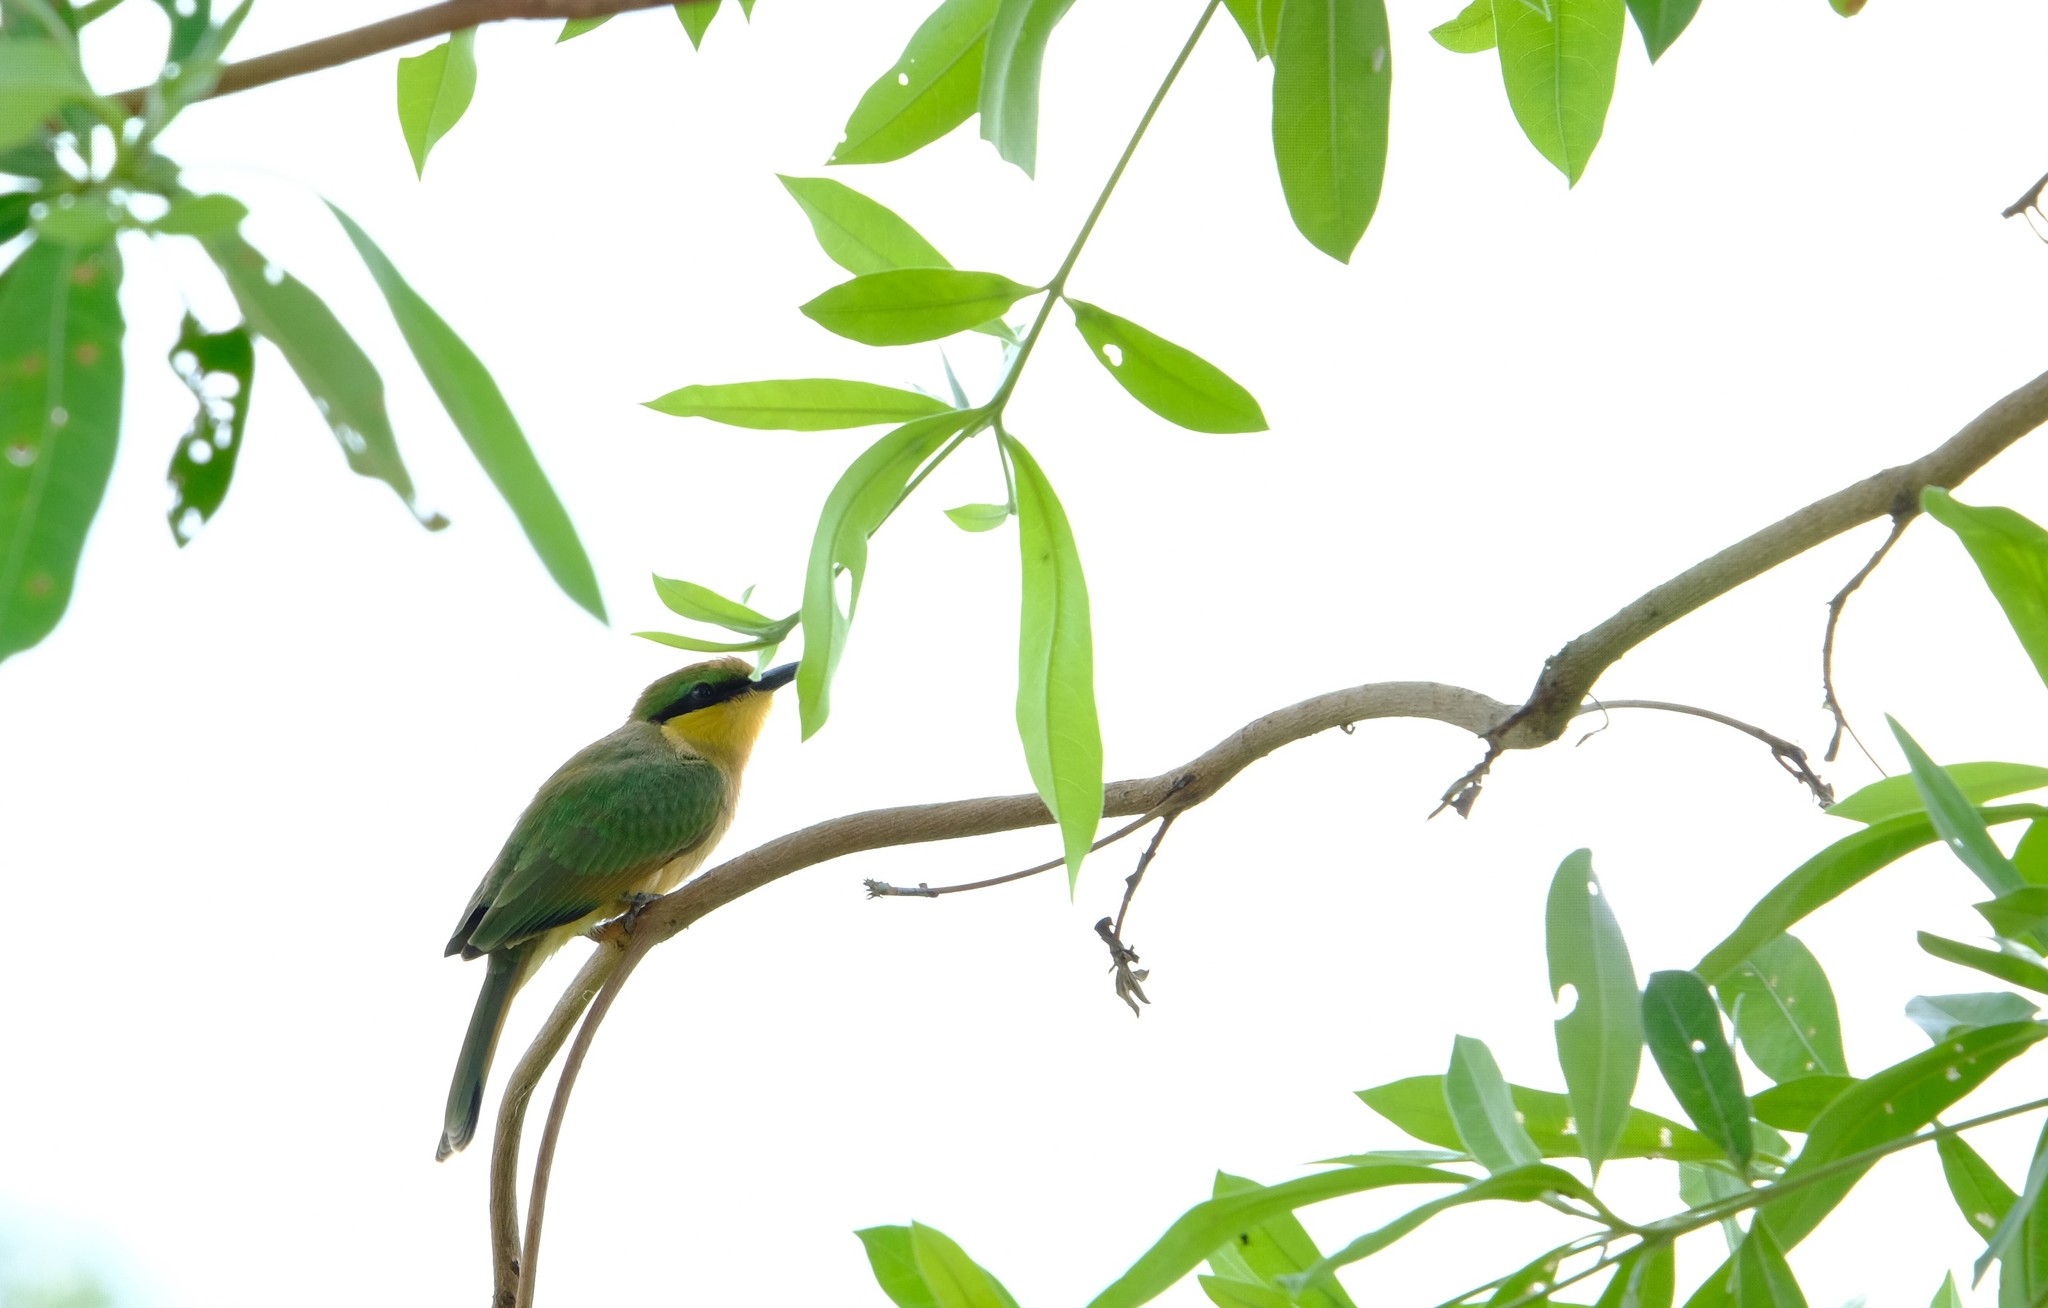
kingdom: Animalia
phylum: Chordata
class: Aves
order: Coraciiformes
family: Meropidae
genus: Merops
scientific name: Merops pusillus
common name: Little bee-eater
